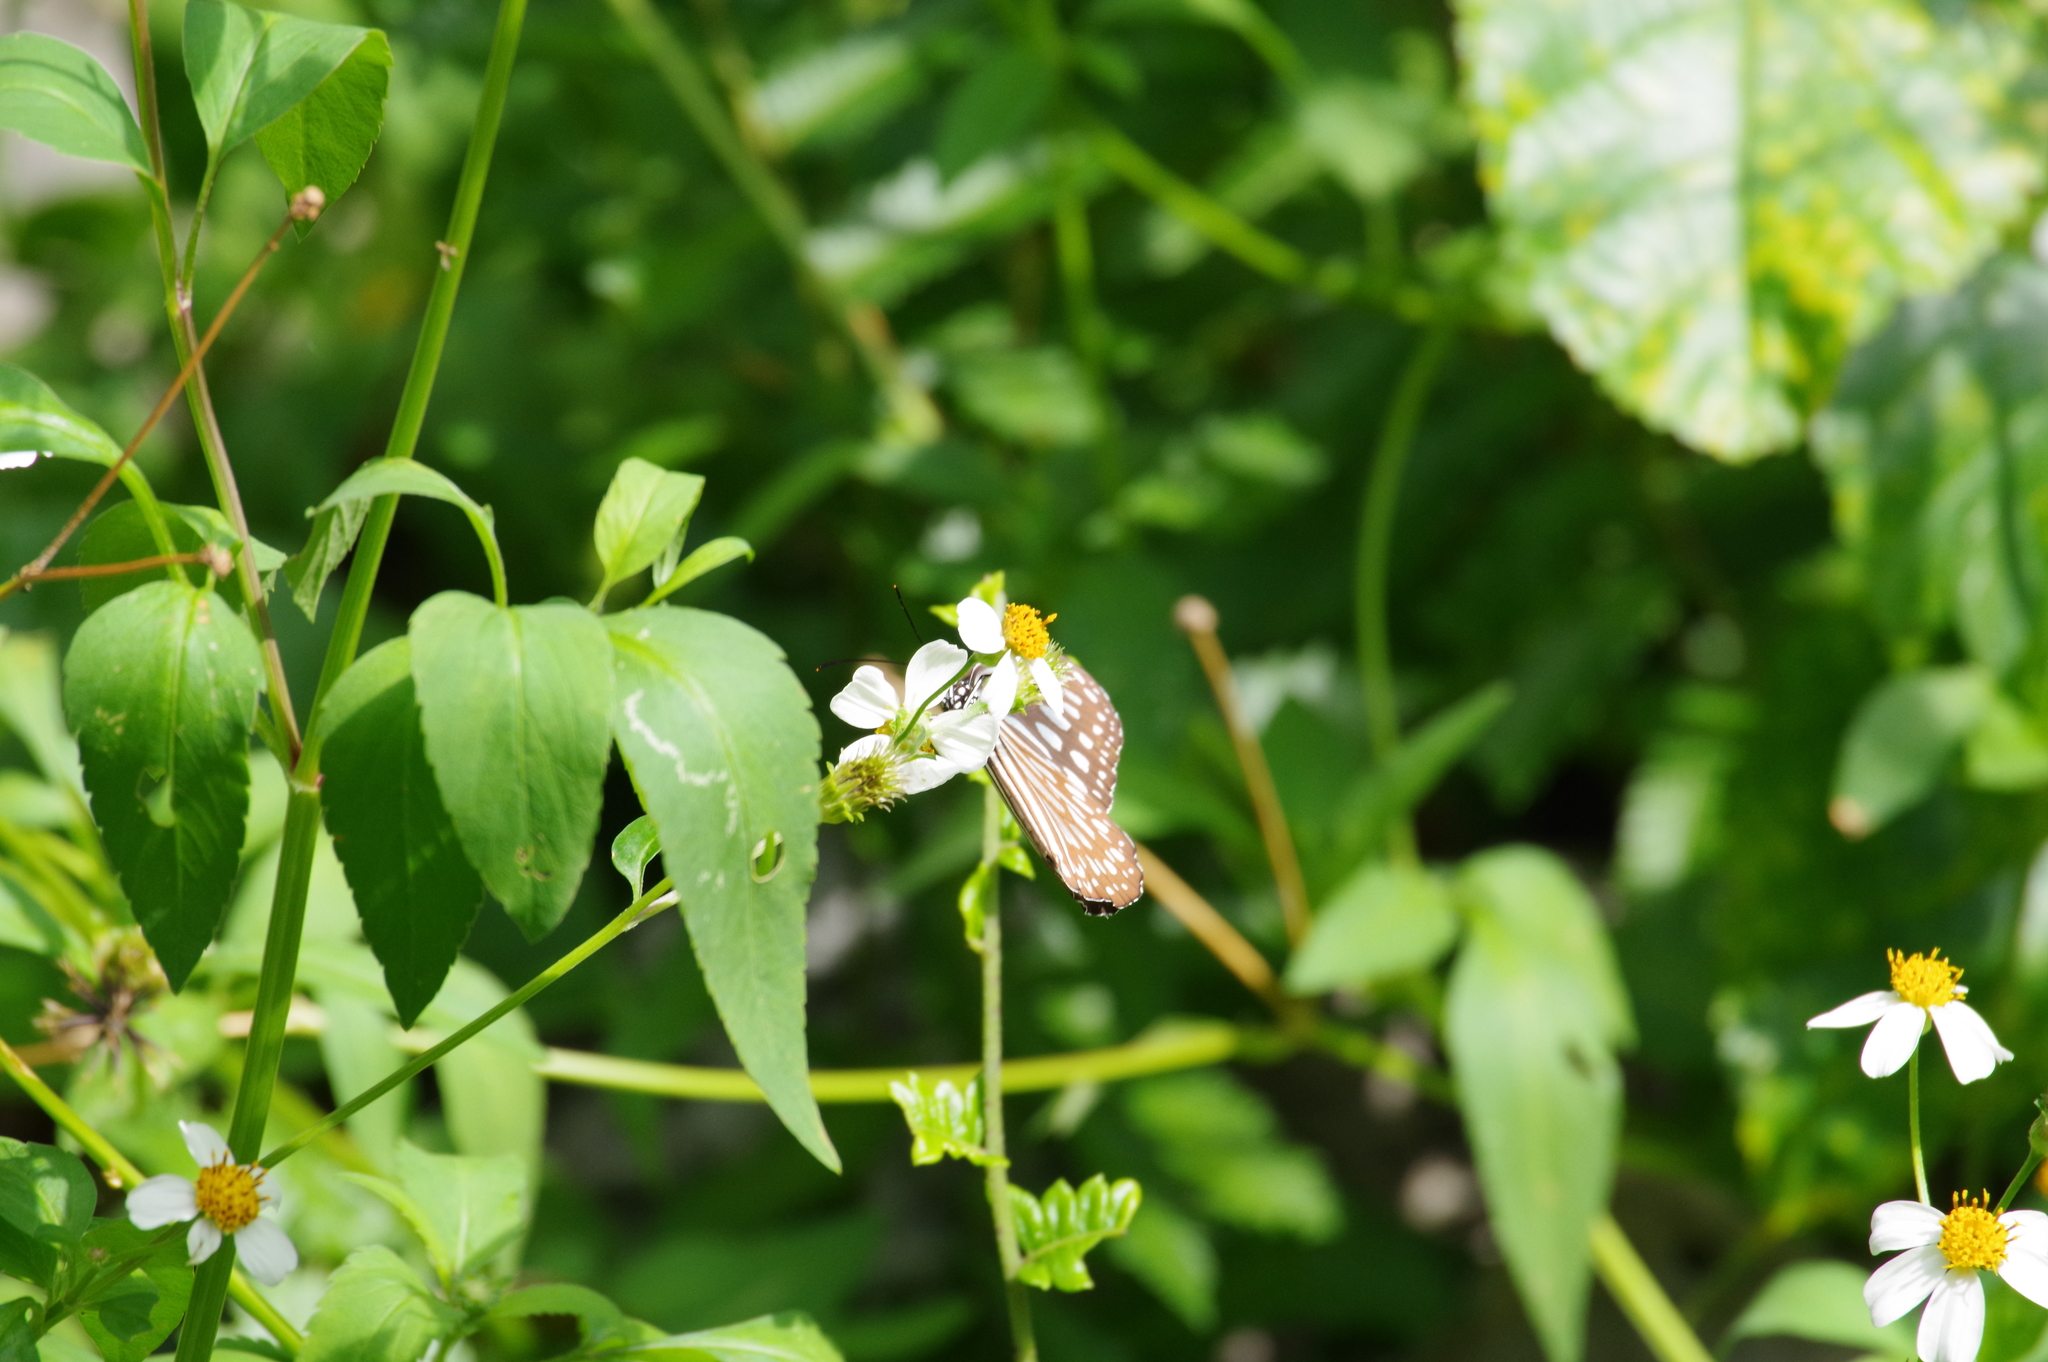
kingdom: Animalia
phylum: Arthropoda
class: Insecta
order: Lepidoptera
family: Nymphalidae
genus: Ideopsis
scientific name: Ideopsis similis
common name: Ceylon blue glassy tiger
